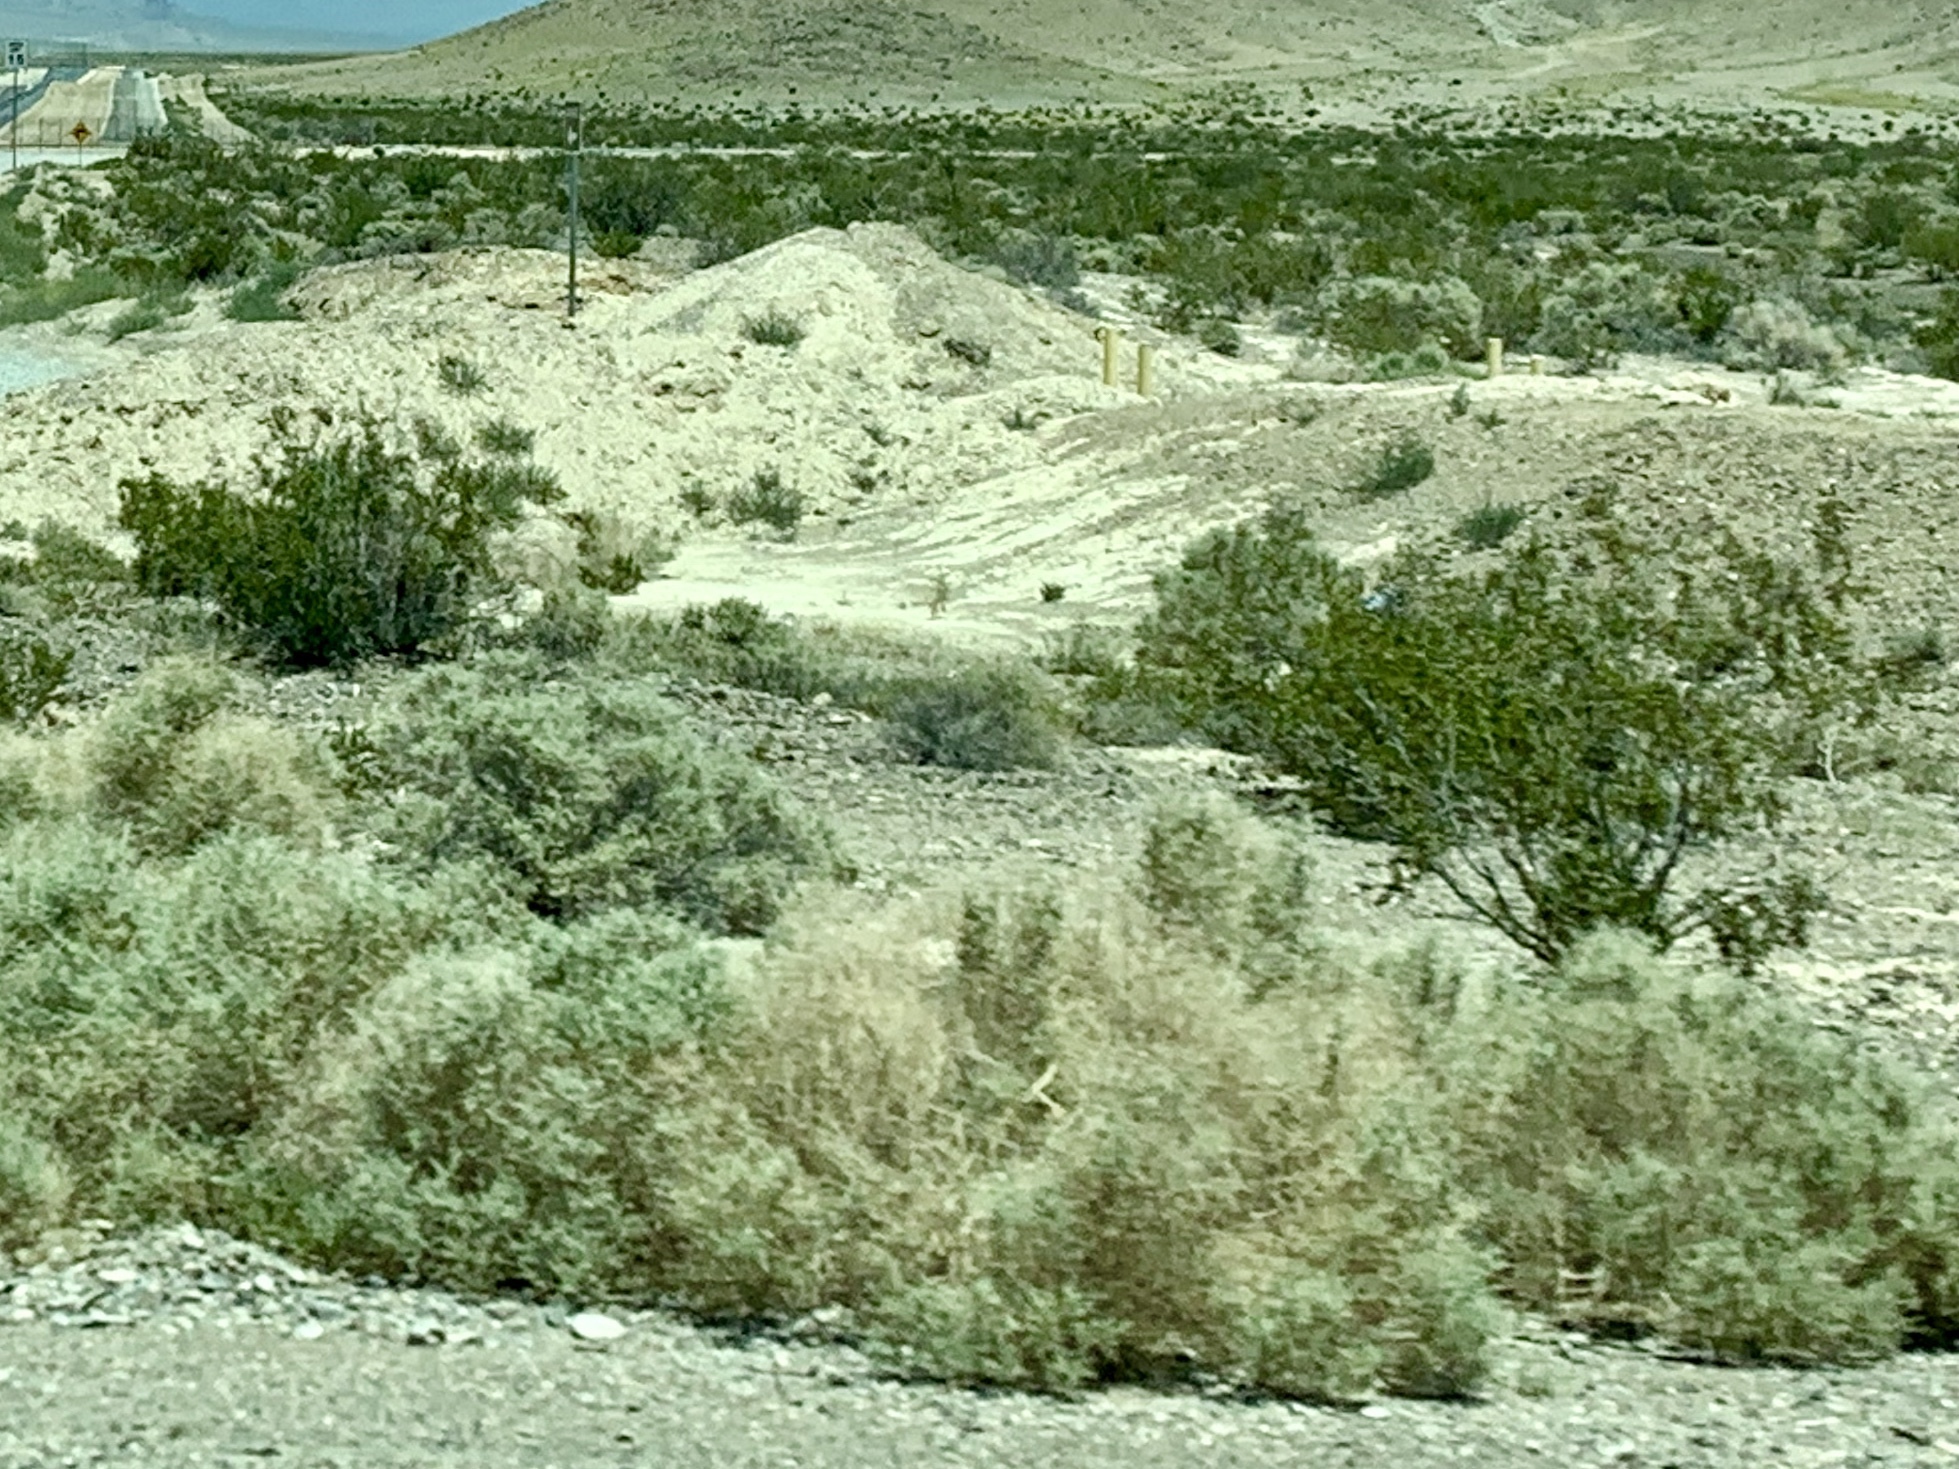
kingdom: Plantae
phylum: Tracheophyta
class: Magnoliopsida
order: Zygophyllales
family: Zygophyllaceae
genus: Larrea
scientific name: Larrea tridentata
